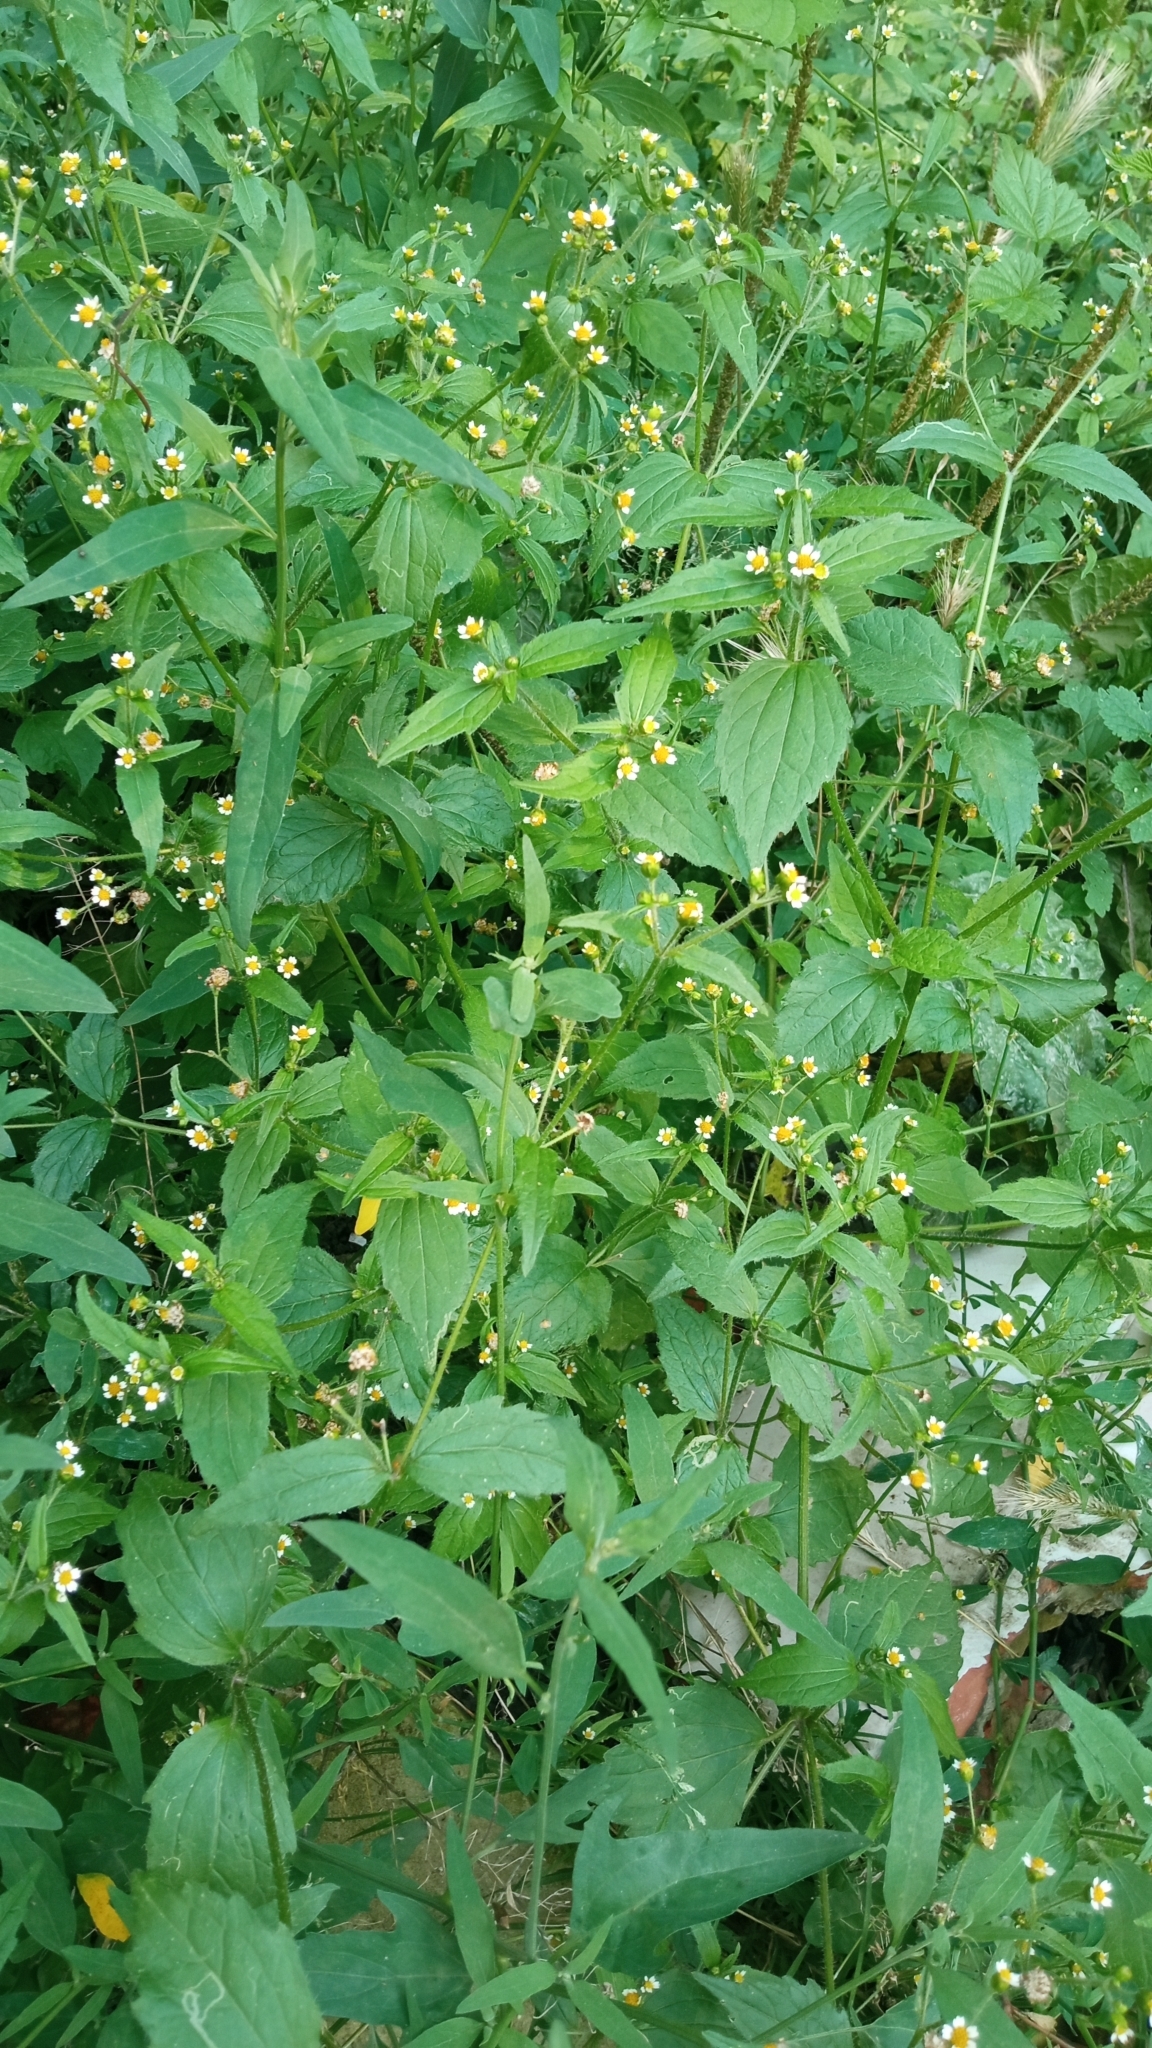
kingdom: Plantae
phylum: Tracheophyta
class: Magnoliopsida
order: Asterales
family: Asteraceae
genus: Galinsoga
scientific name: Galinsoga quadriradiata
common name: Shaggy soldier
